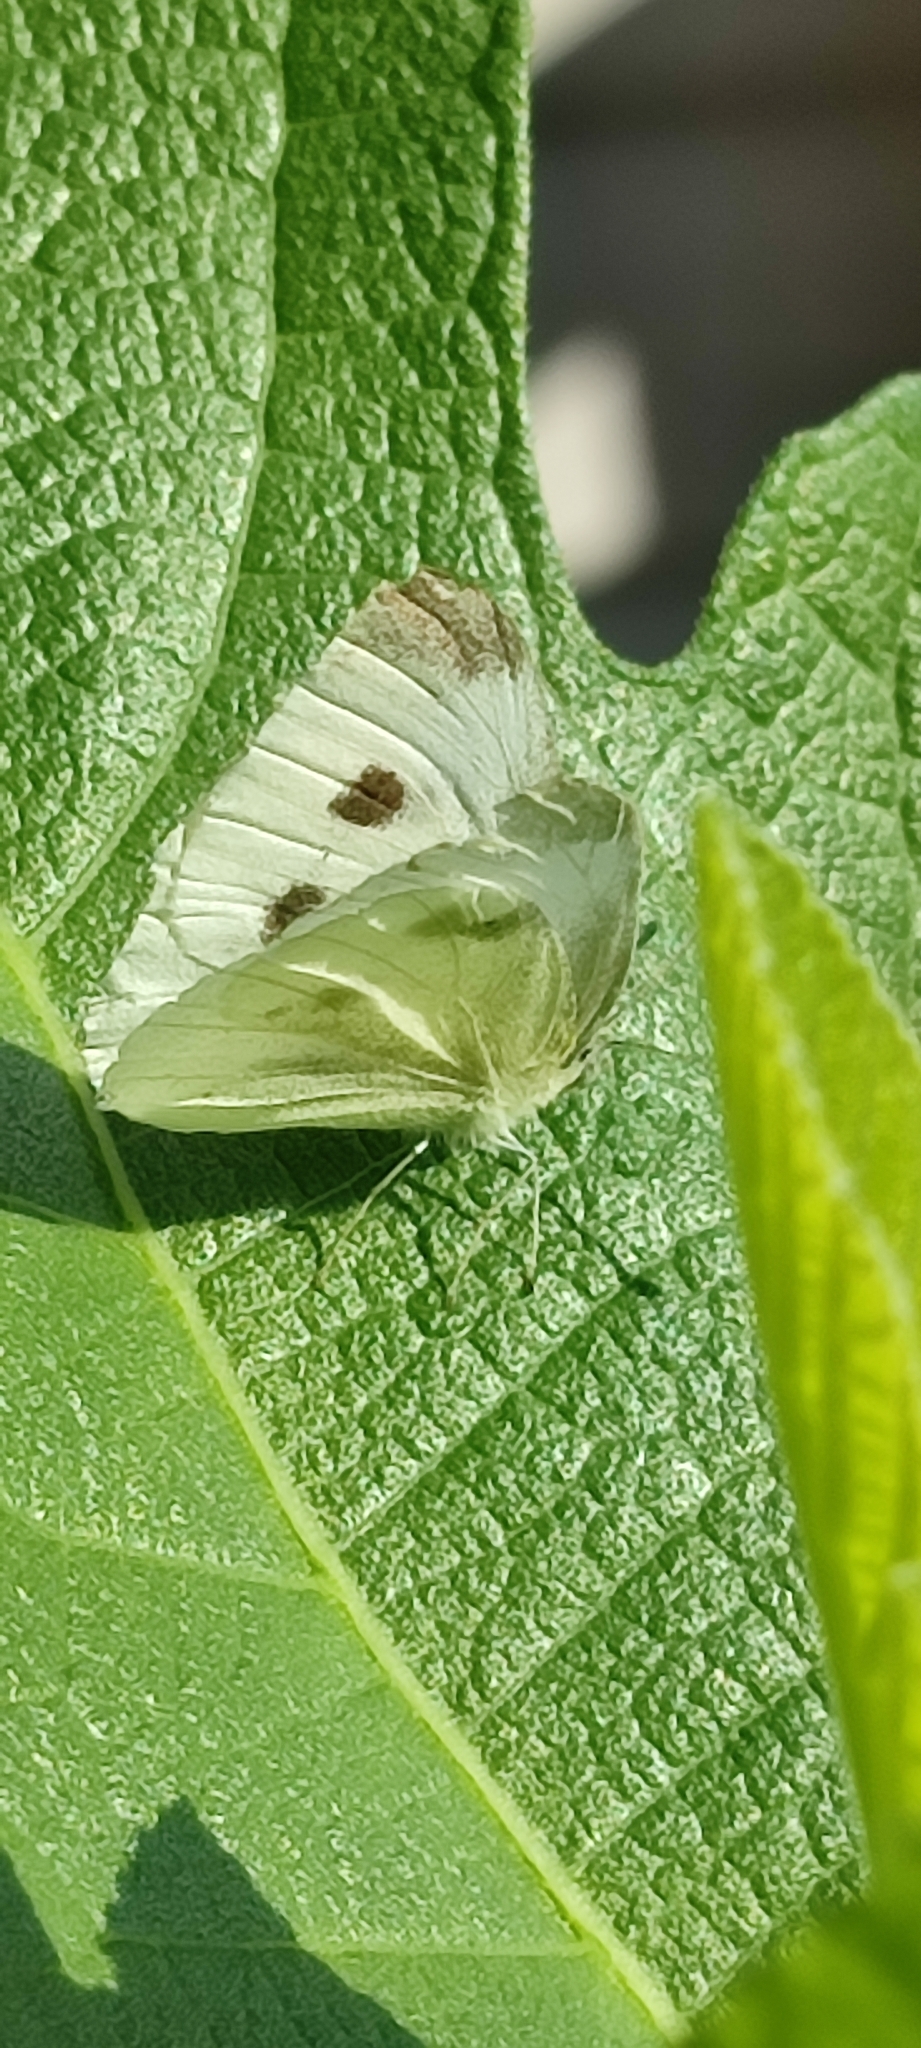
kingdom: Animalia
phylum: Arthropoda
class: Insecta
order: Lepidoptera
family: Pieridae
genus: Pieris
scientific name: Pieris rapae
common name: Small white
